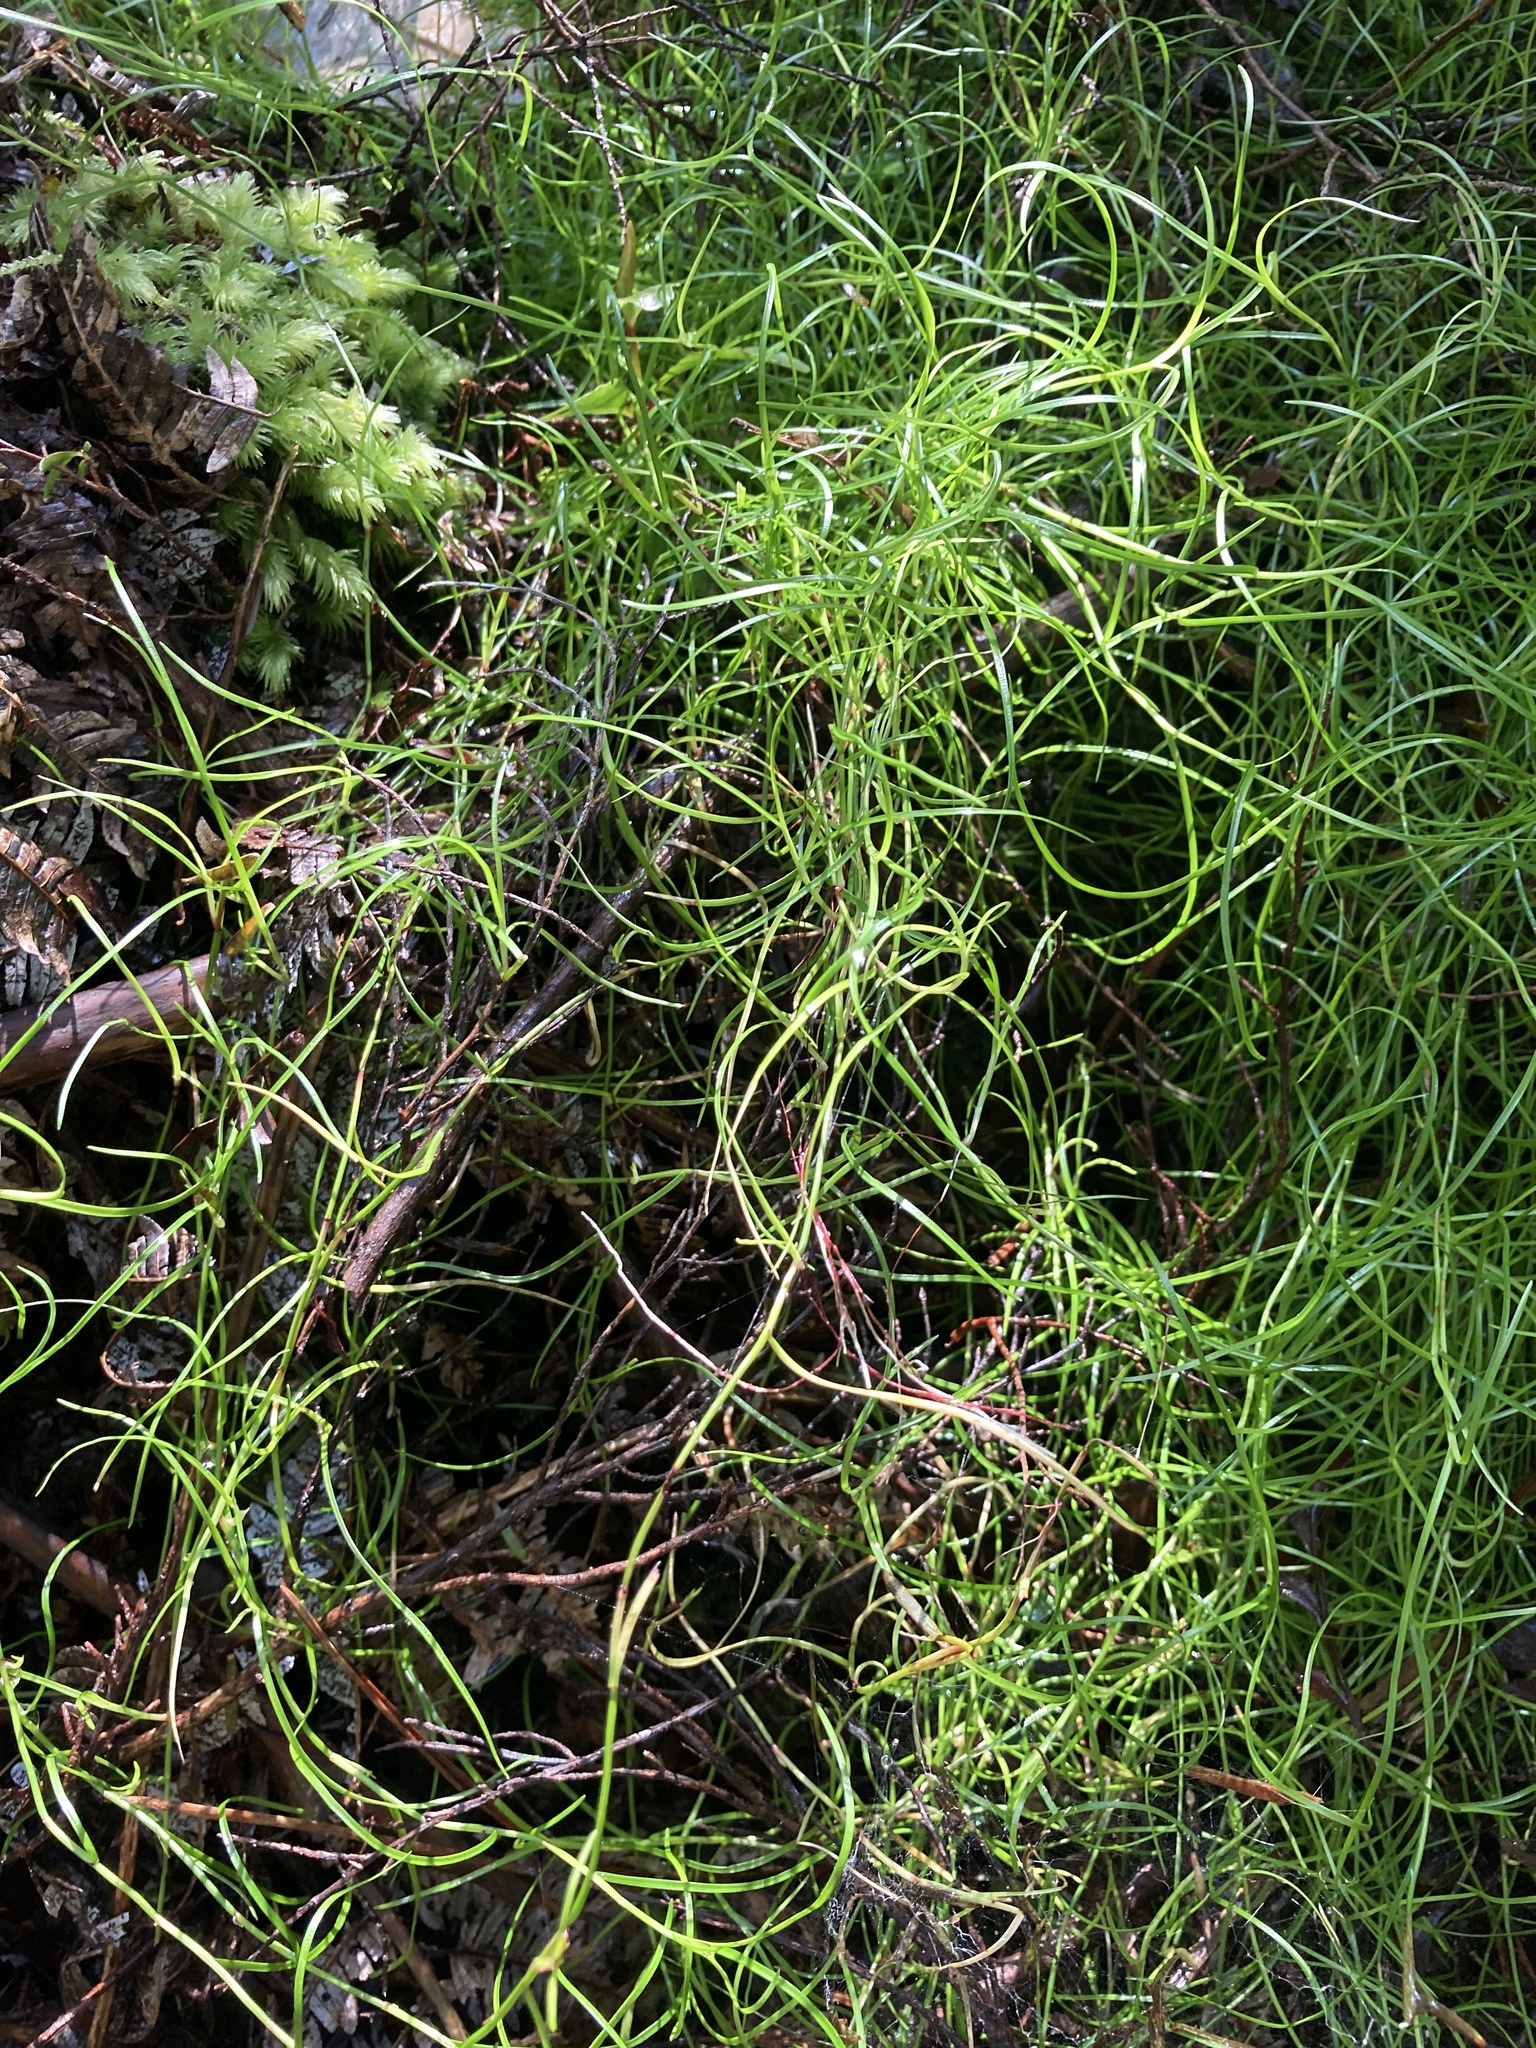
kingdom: Plantae
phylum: Tracheophyta
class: Liliopsida
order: Poales
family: Cyperaceae
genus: Schoenus
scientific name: Schoenus maschalinus
